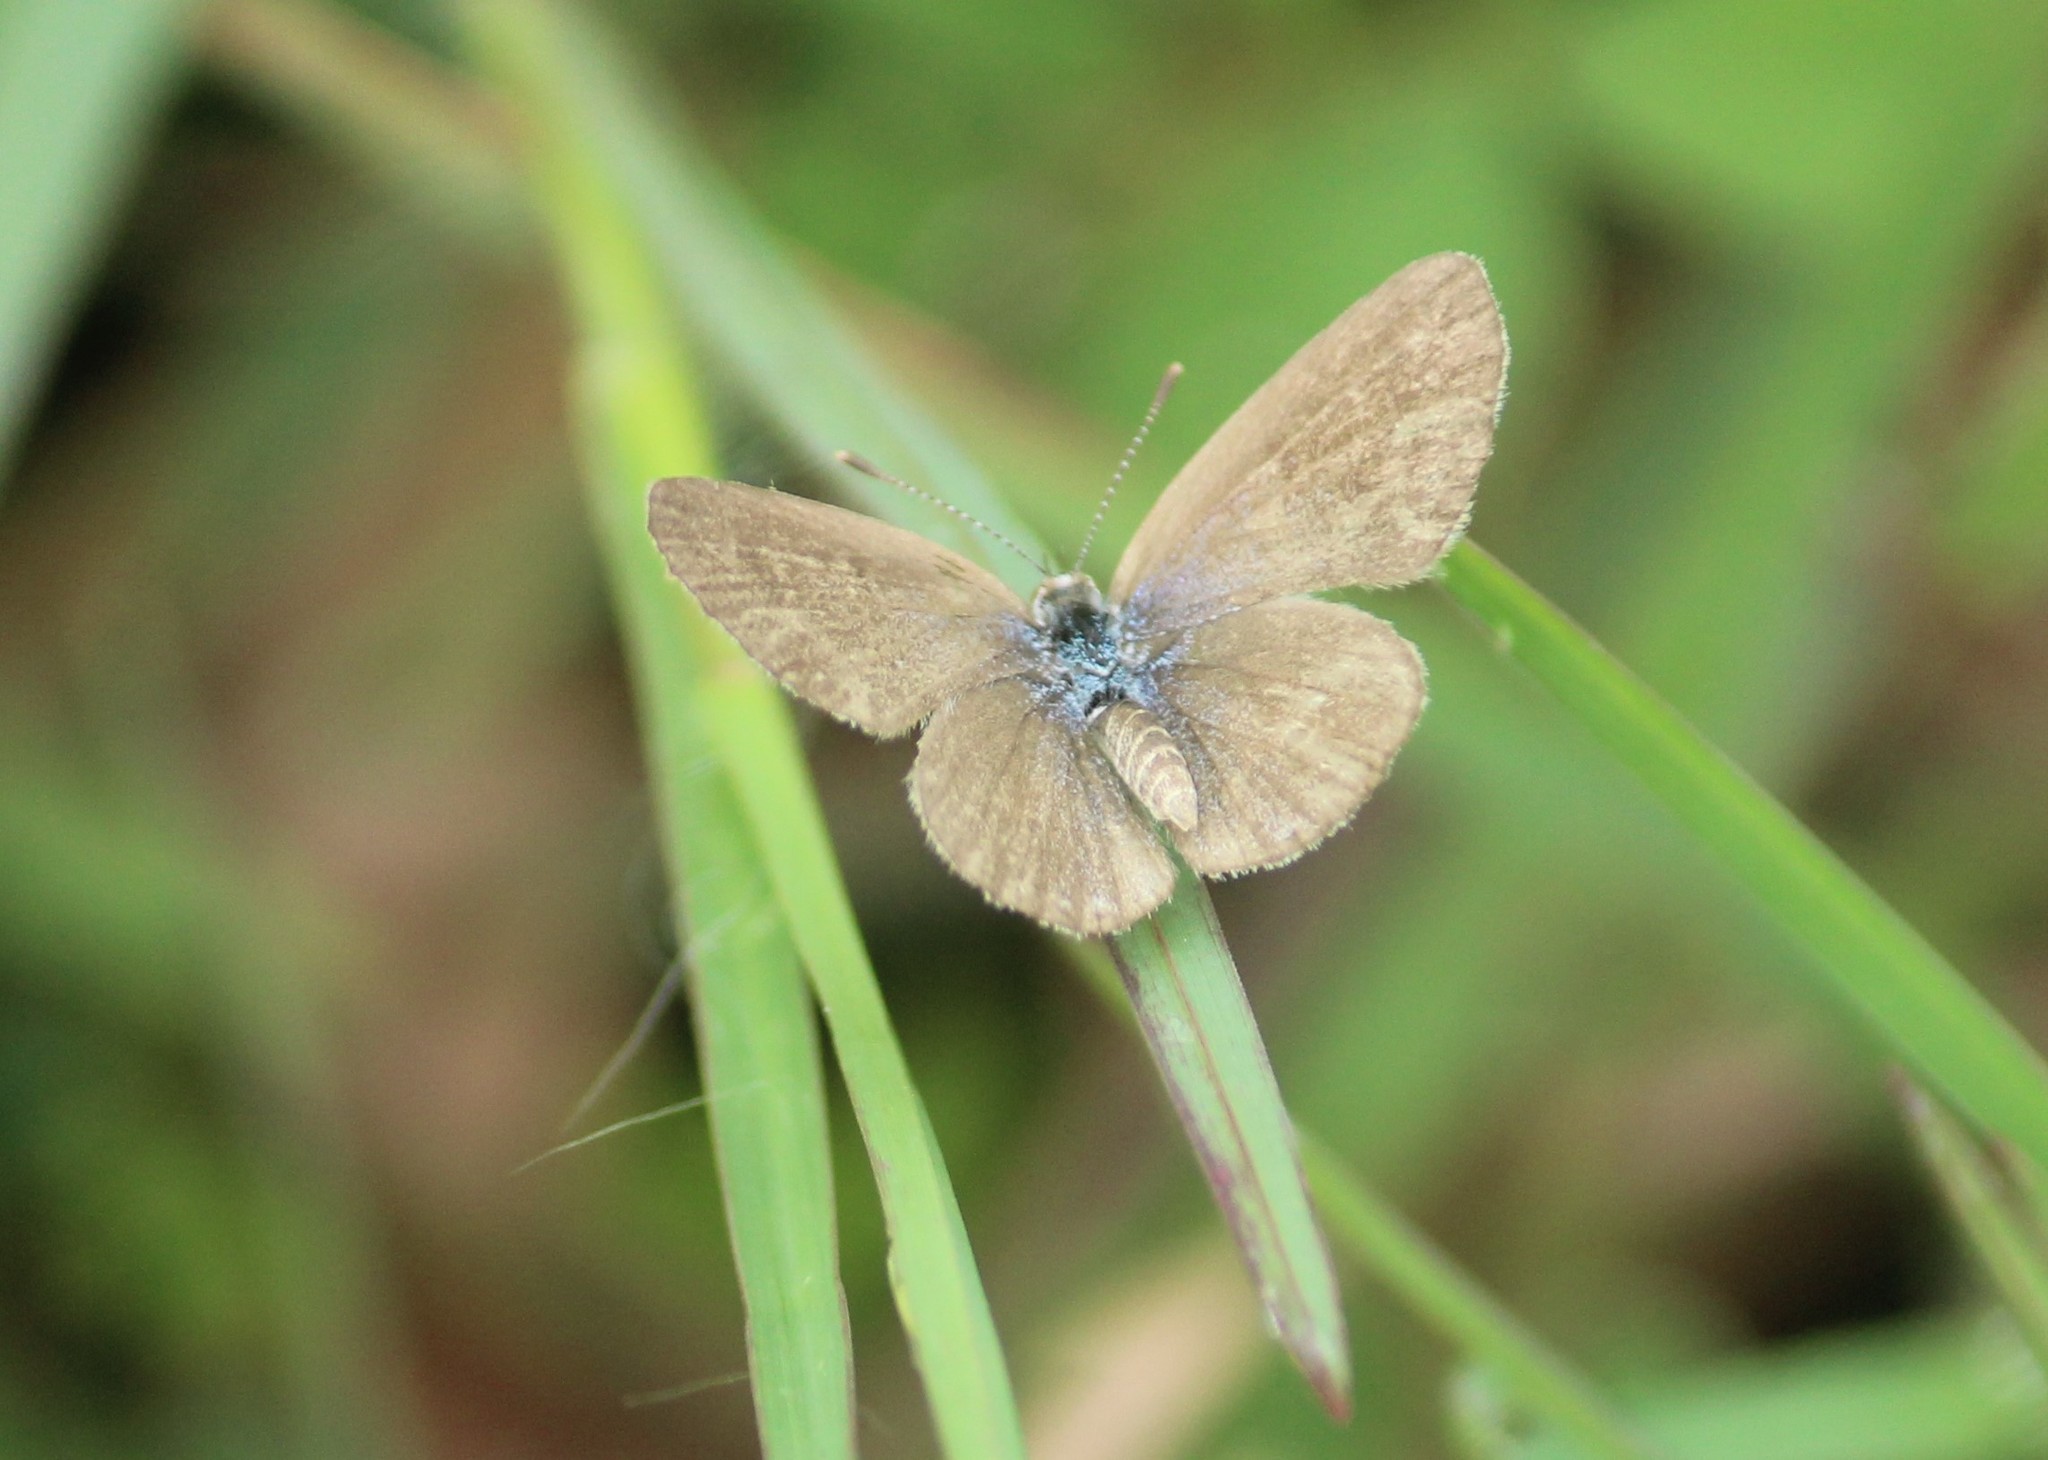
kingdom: Animalia
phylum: Arthropoda
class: Insecta
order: Lepidoptera
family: Lycaenidae
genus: Zizina
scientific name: Zizina otis
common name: Lesser grass blue
